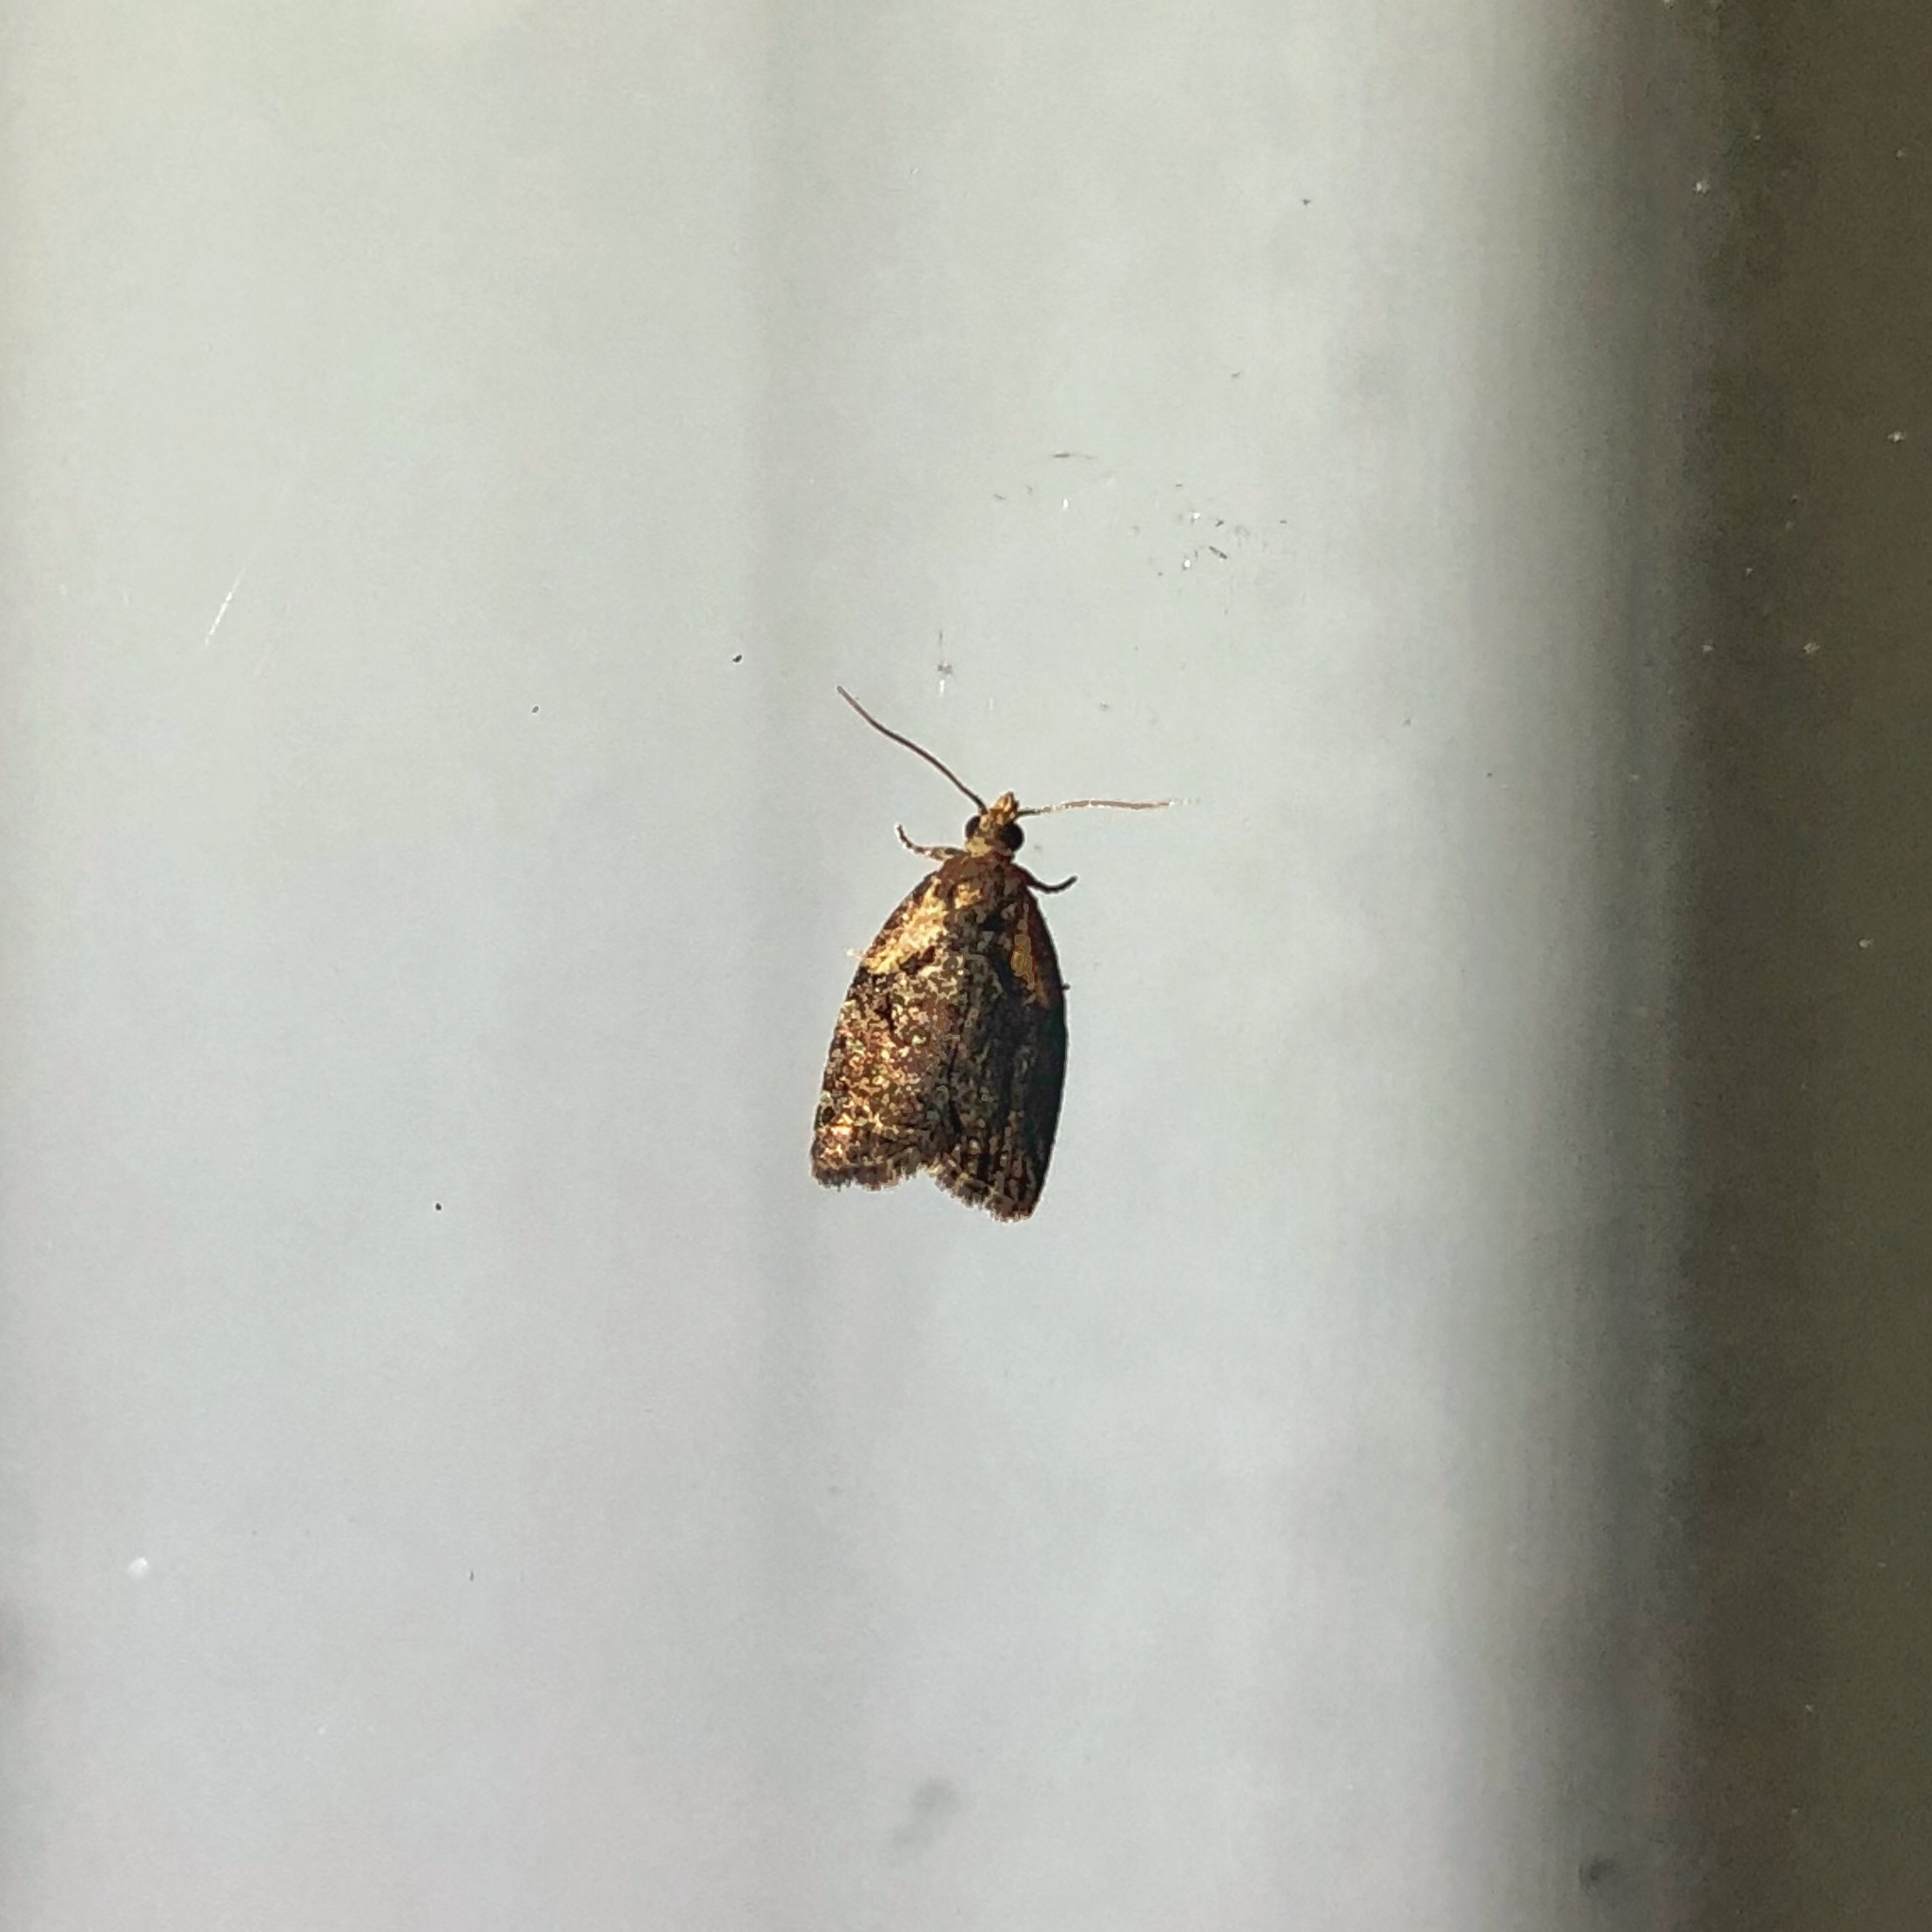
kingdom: Animalia
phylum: Arthropoda
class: Insecta
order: Lepidoptera
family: Tortricidae
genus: Capua
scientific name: Capua intractana
